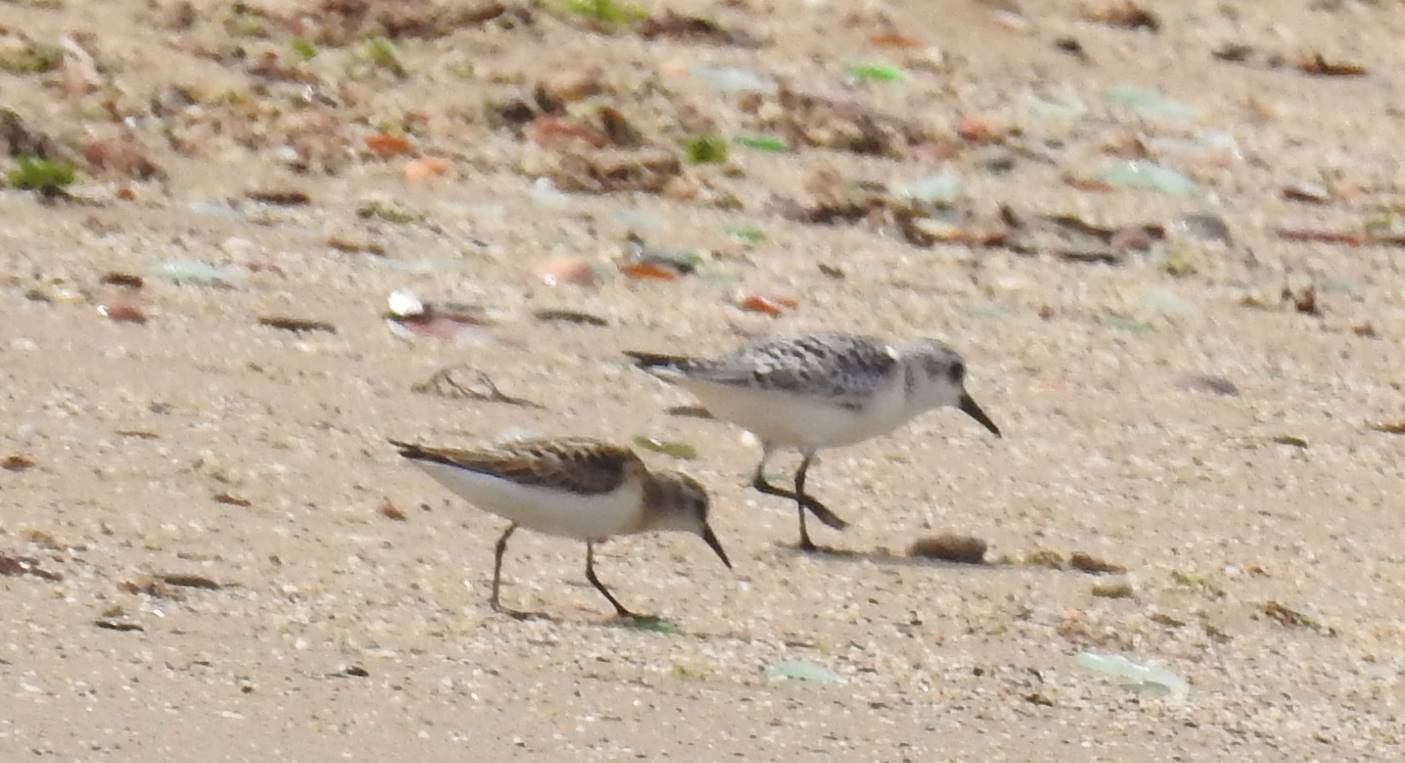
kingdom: Animalia
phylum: Chordata
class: Aves
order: Charadriiformes
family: Scolopacidae
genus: Calidris
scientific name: Calidris minuta
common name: Little stint
